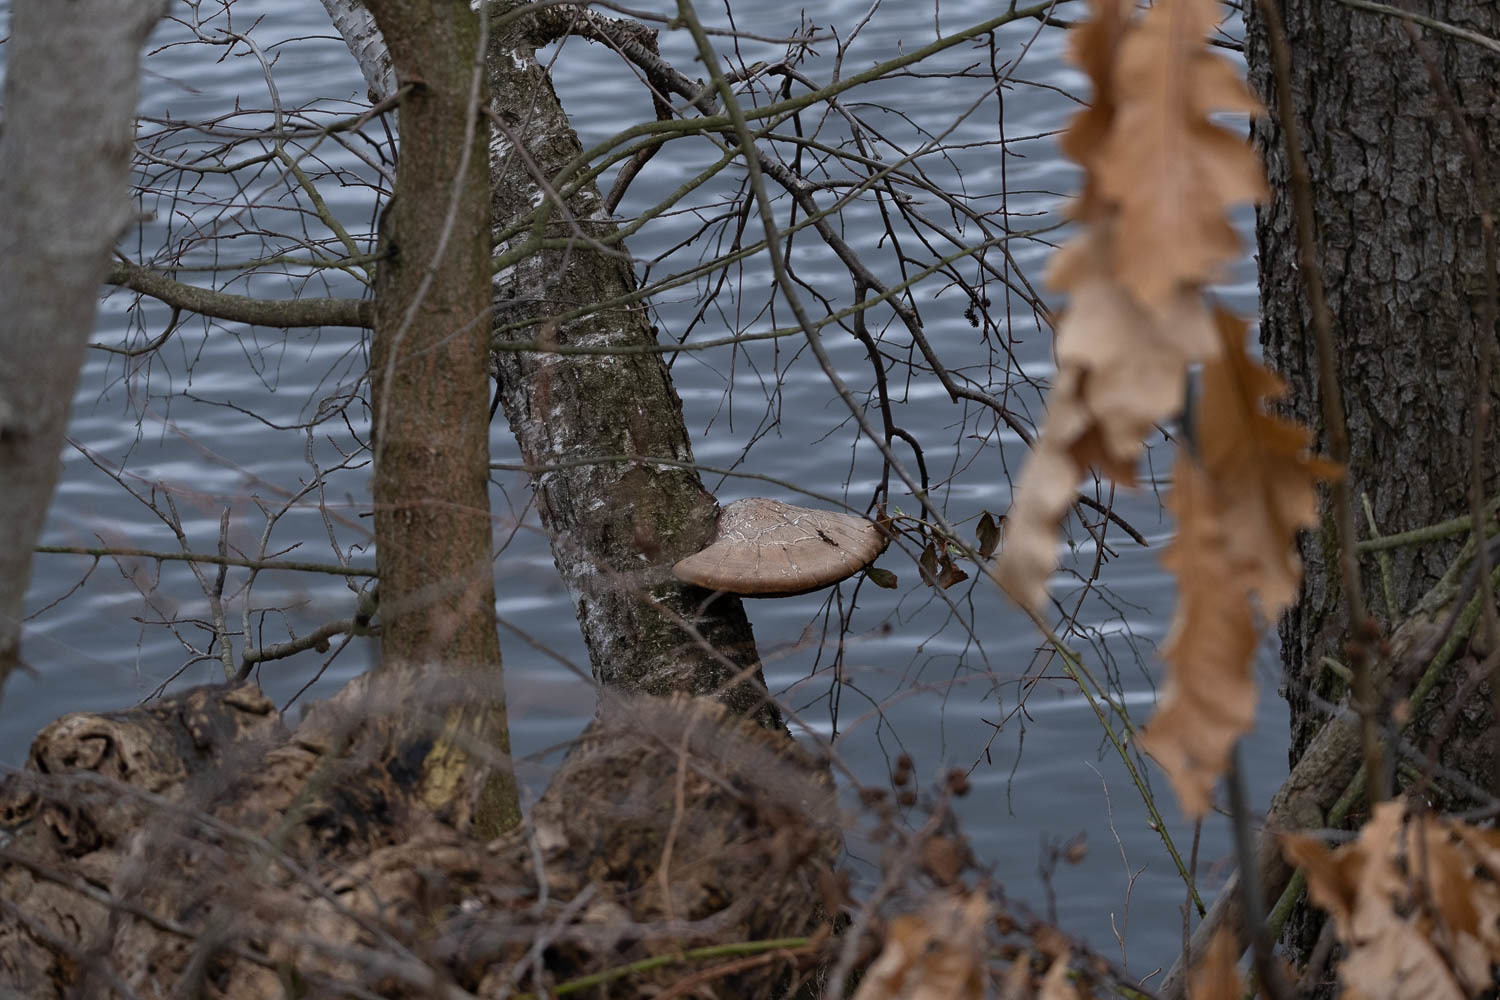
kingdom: Fungi
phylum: Basidiomycota
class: Agaricomycetes
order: Polyporales
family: Fomitopsidaceae
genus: Fomitopsis
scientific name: Fomitopsis betulina
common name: Birch polypore
